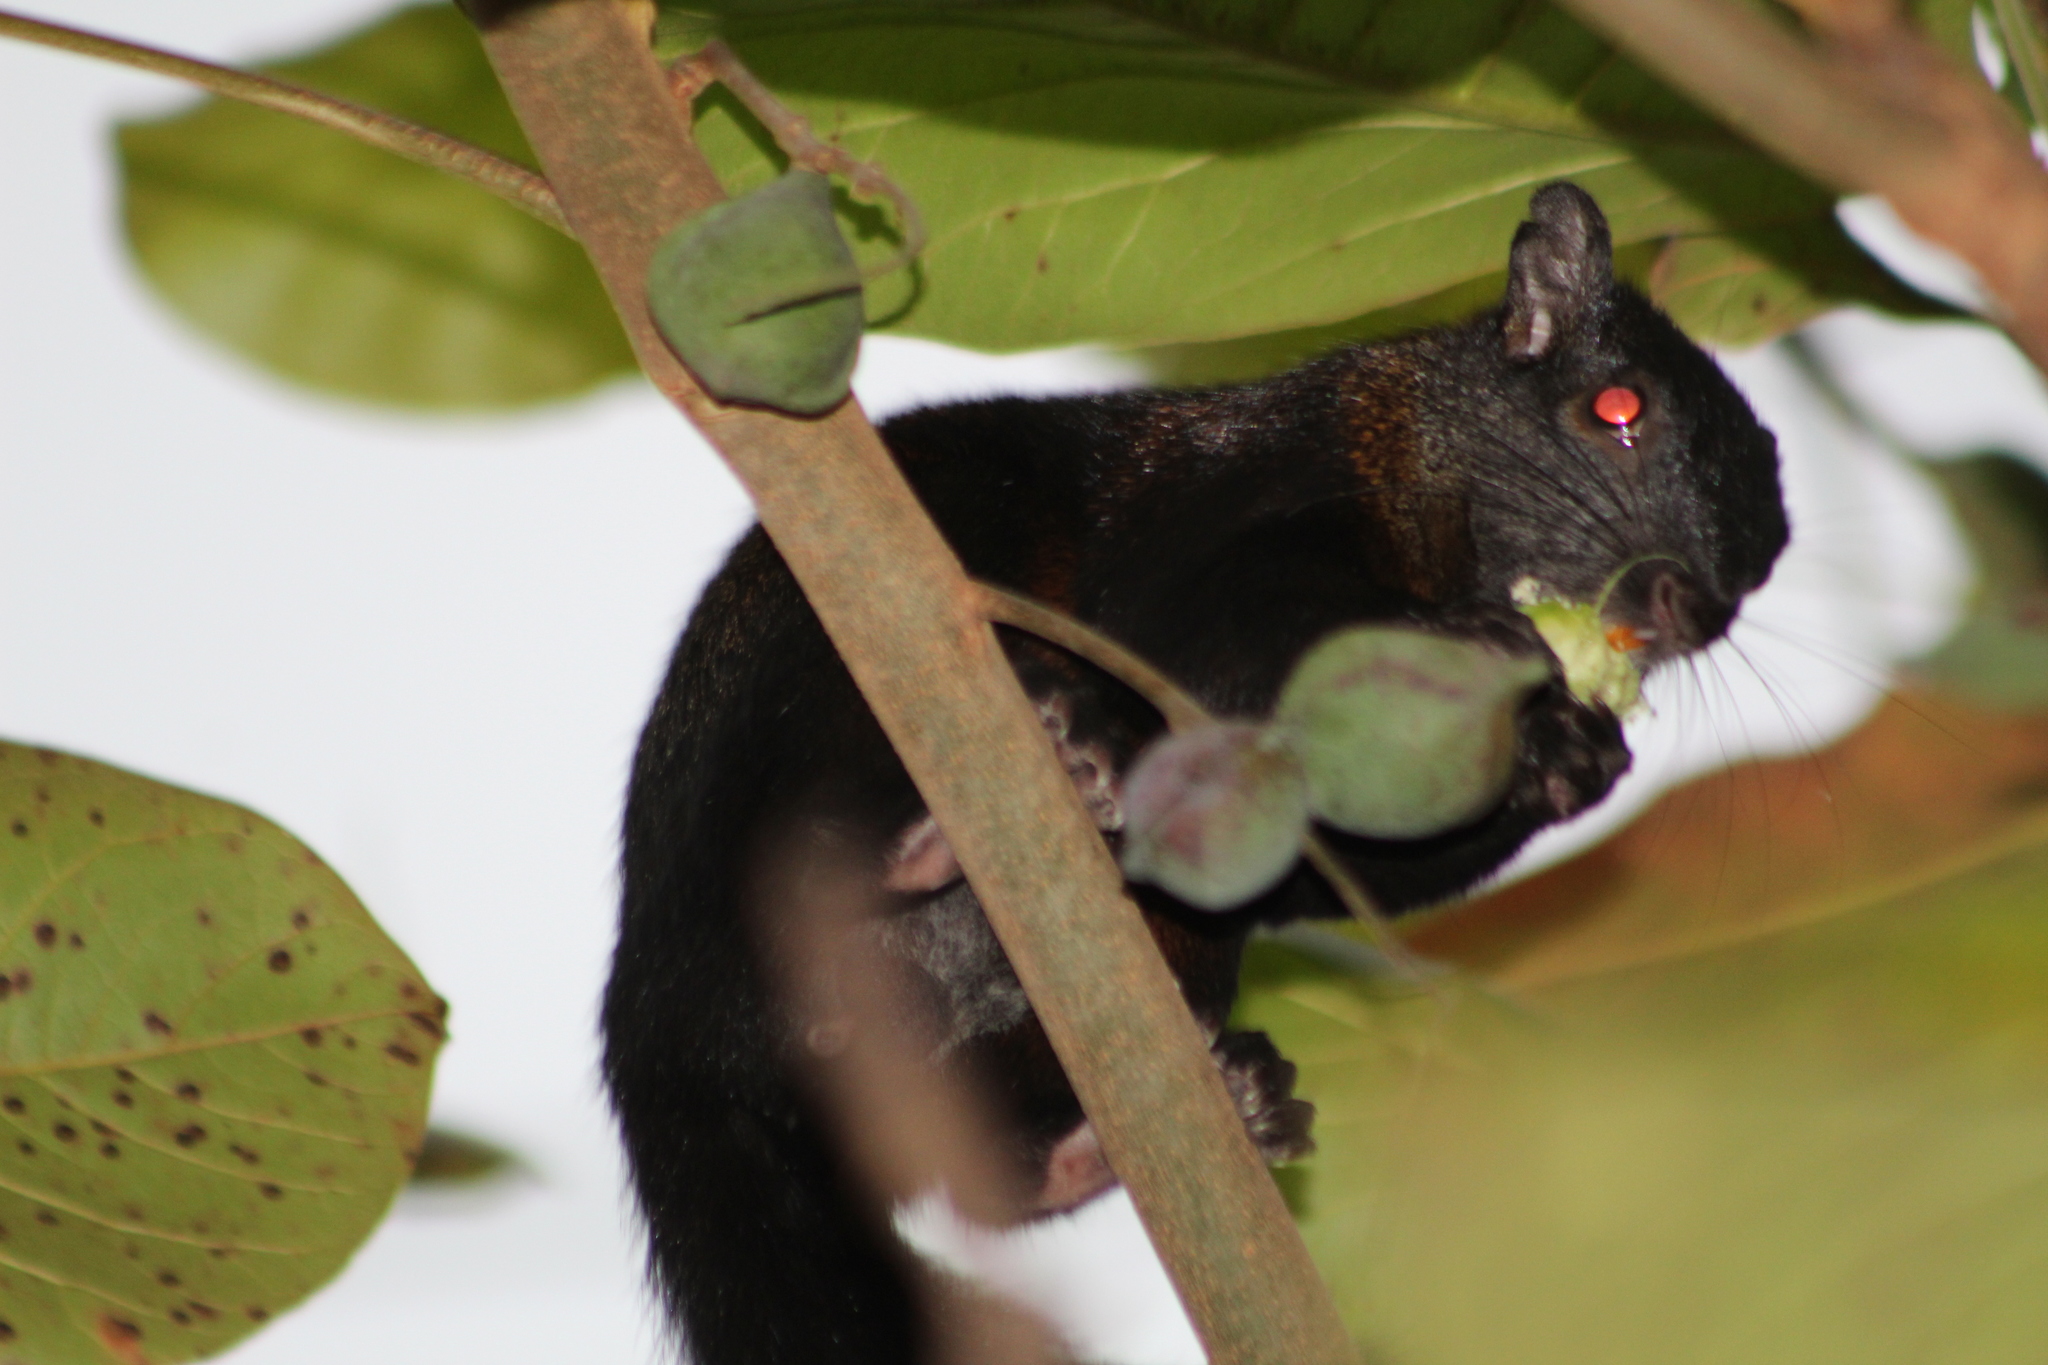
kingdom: Animalia
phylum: Chordata
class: Mammalia
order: Rodentia
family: Sciuridae
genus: Sciurus
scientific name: Sciurus aureogaster
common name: Red-bellied squirrel
